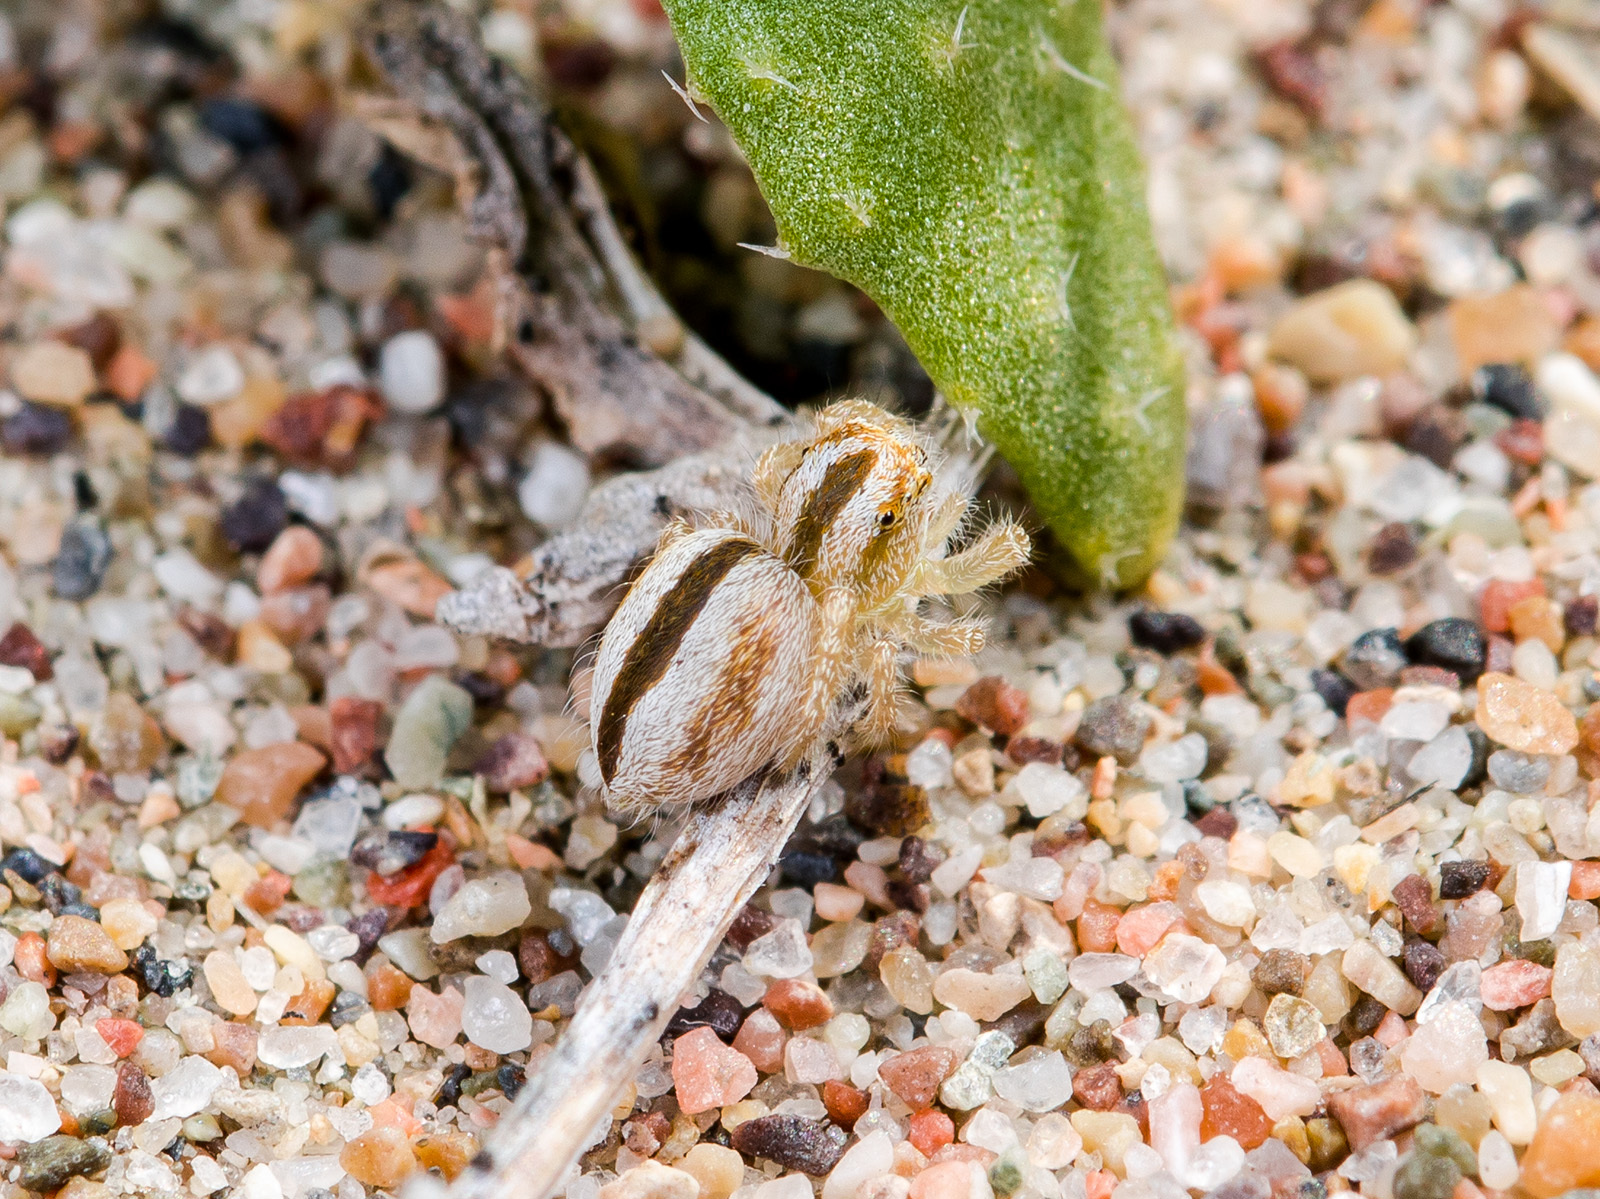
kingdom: Animalia
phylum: Arthropoda
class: Arachnida
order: Araneae
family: Salticidae
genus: Pseudomogrus
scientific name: Pseudomogrus zhilgaensis
